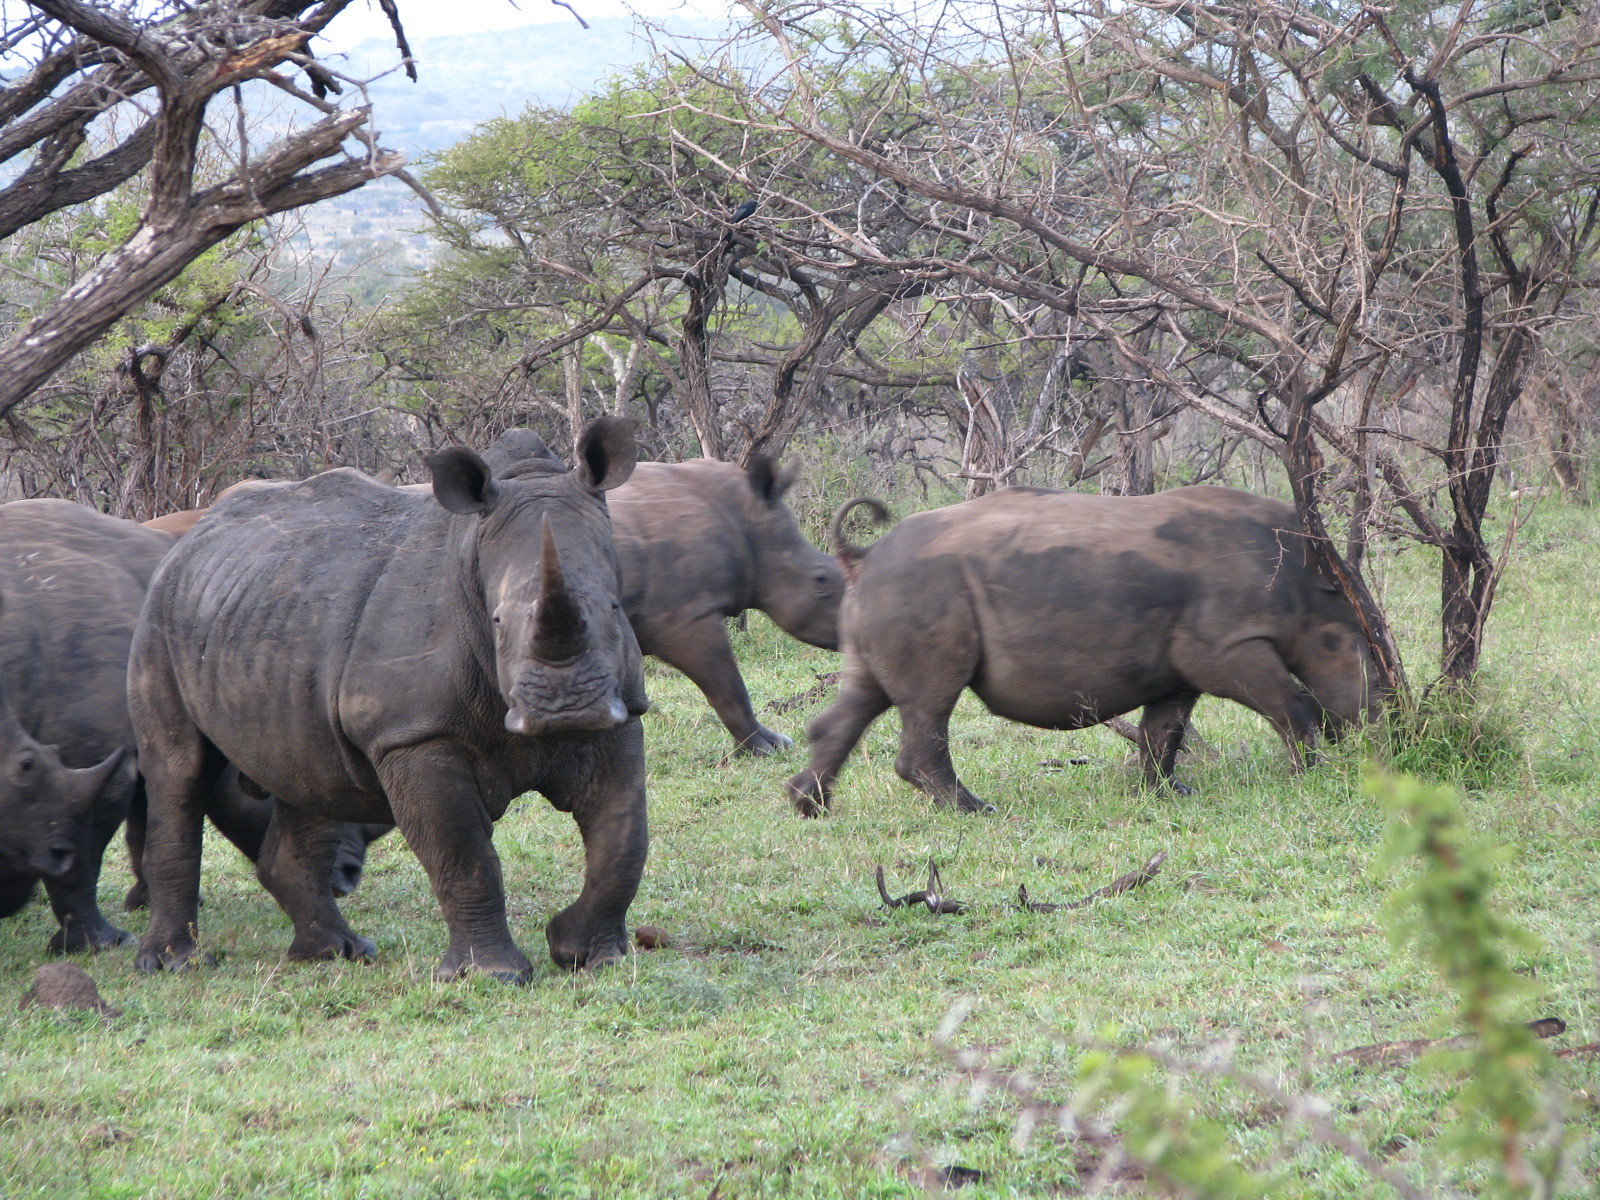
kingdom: Animalia
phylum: Chordata
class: Mammalia
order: Perissodactyla
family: Rhinocerotidae
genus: Ceratotherium
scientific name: Ceratotherium simum
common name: White rhinoceros
